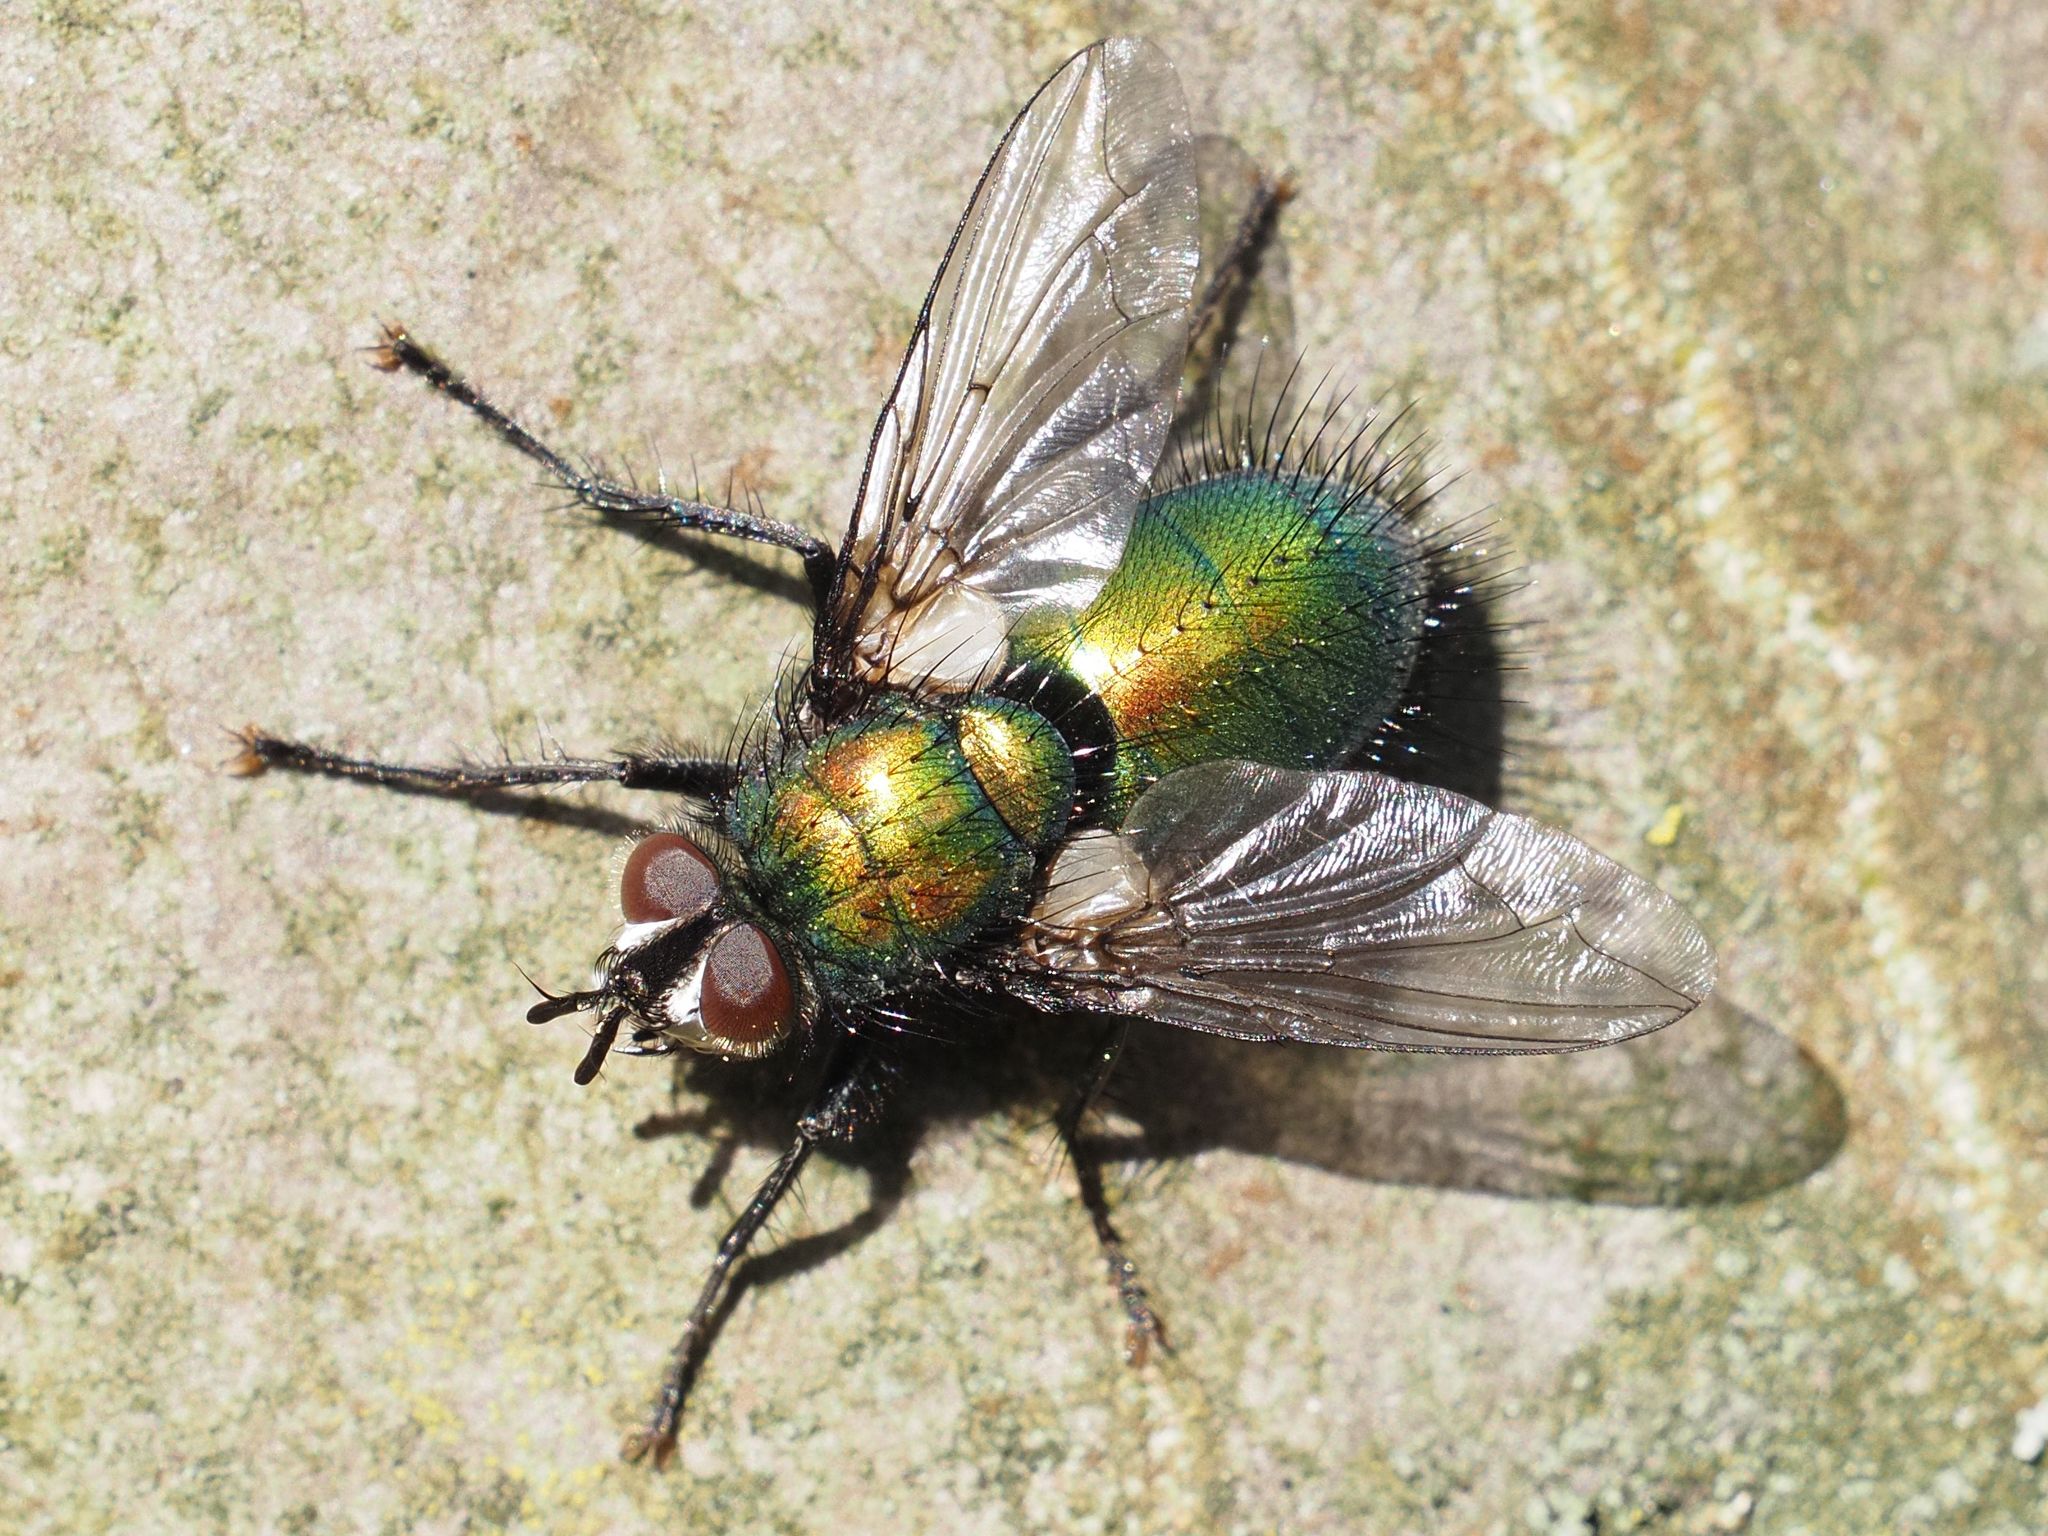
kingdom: Animalia
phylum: Arthropoda
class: Insecta
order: Diptera
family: Tachinidae
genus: Gymnocheta
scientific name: Gymnocheta viridis
